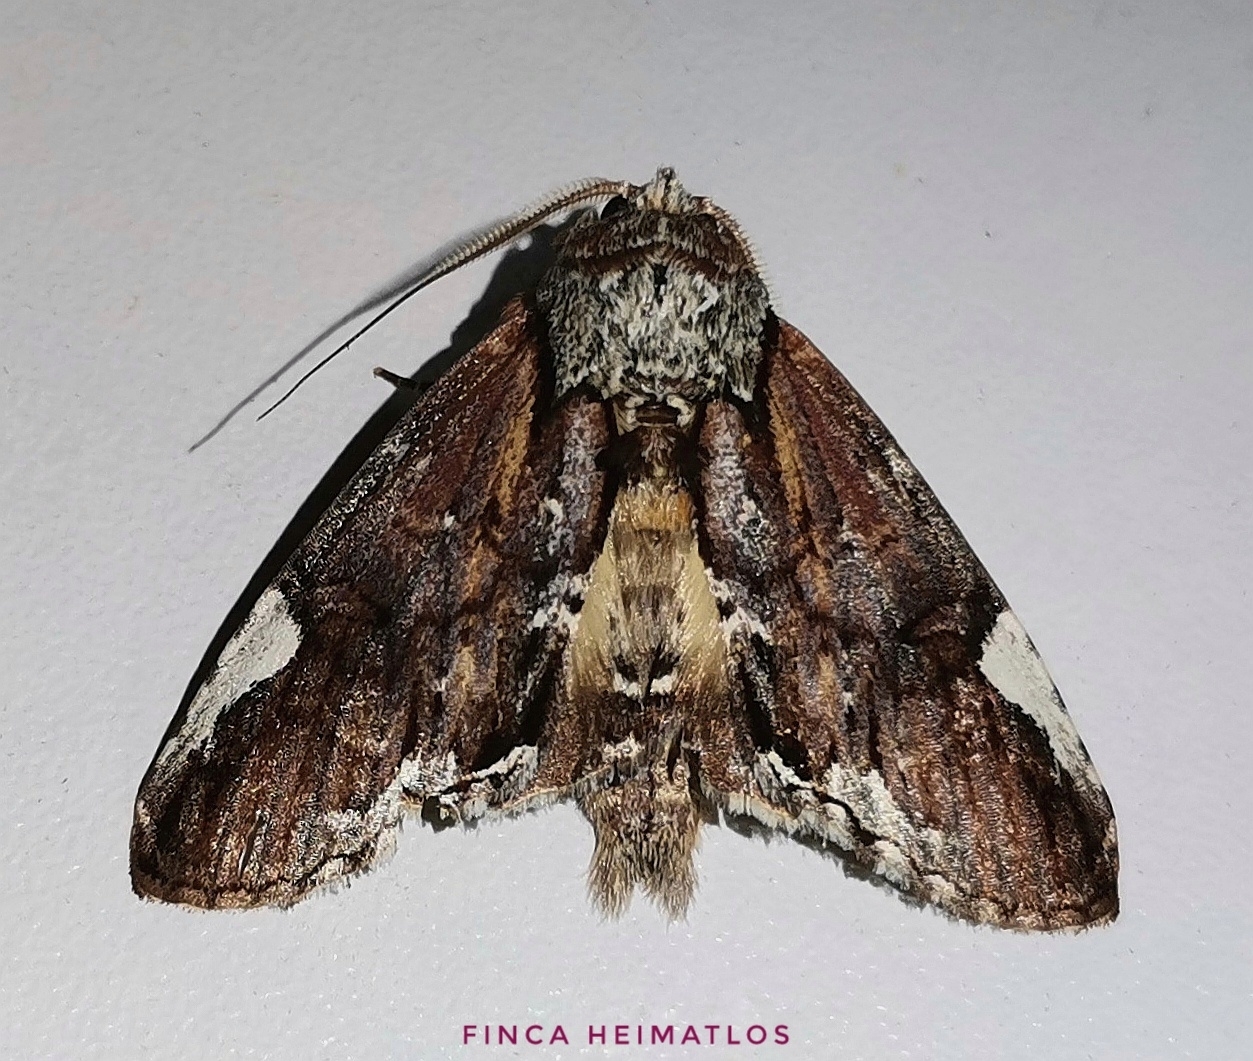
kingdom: Animalia
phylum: Arthropoda
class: Insecta
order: Lepidoptera
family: Notodontidae
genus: Chadisrochroa
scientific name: Chadisrochroa zabenilla
